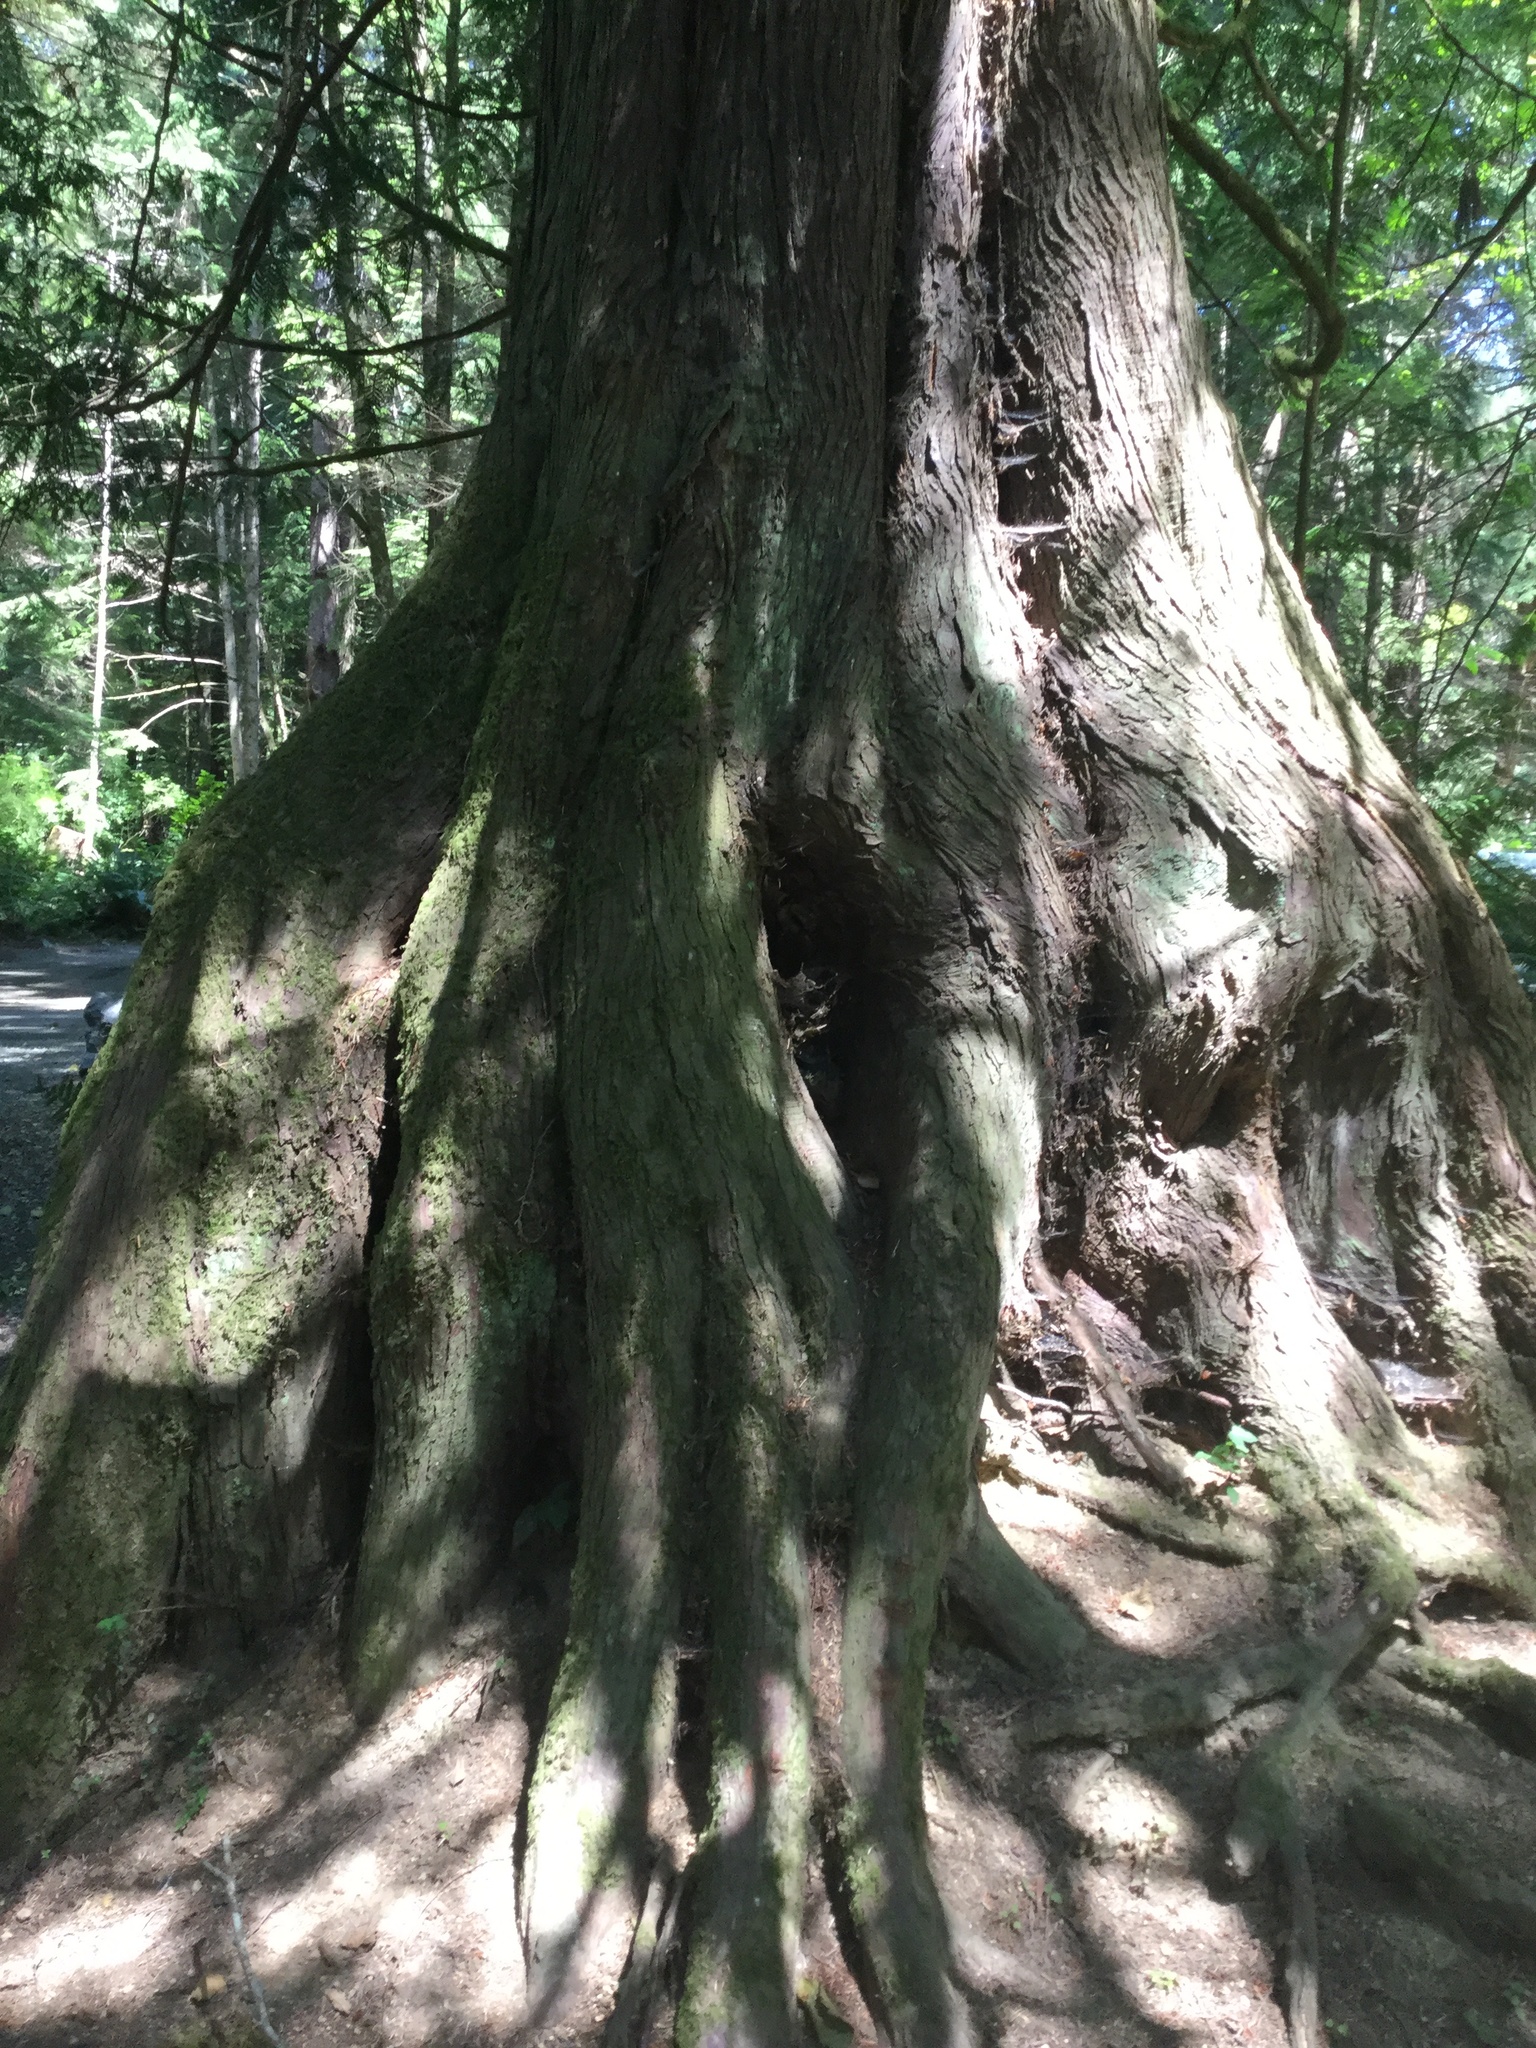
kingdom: Plantae
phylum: Tracheophyta
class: Pinopsida
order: Pinales
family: Cupressaceae
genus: Thuja
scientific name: Thuja plicata
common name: Western red-cedar
